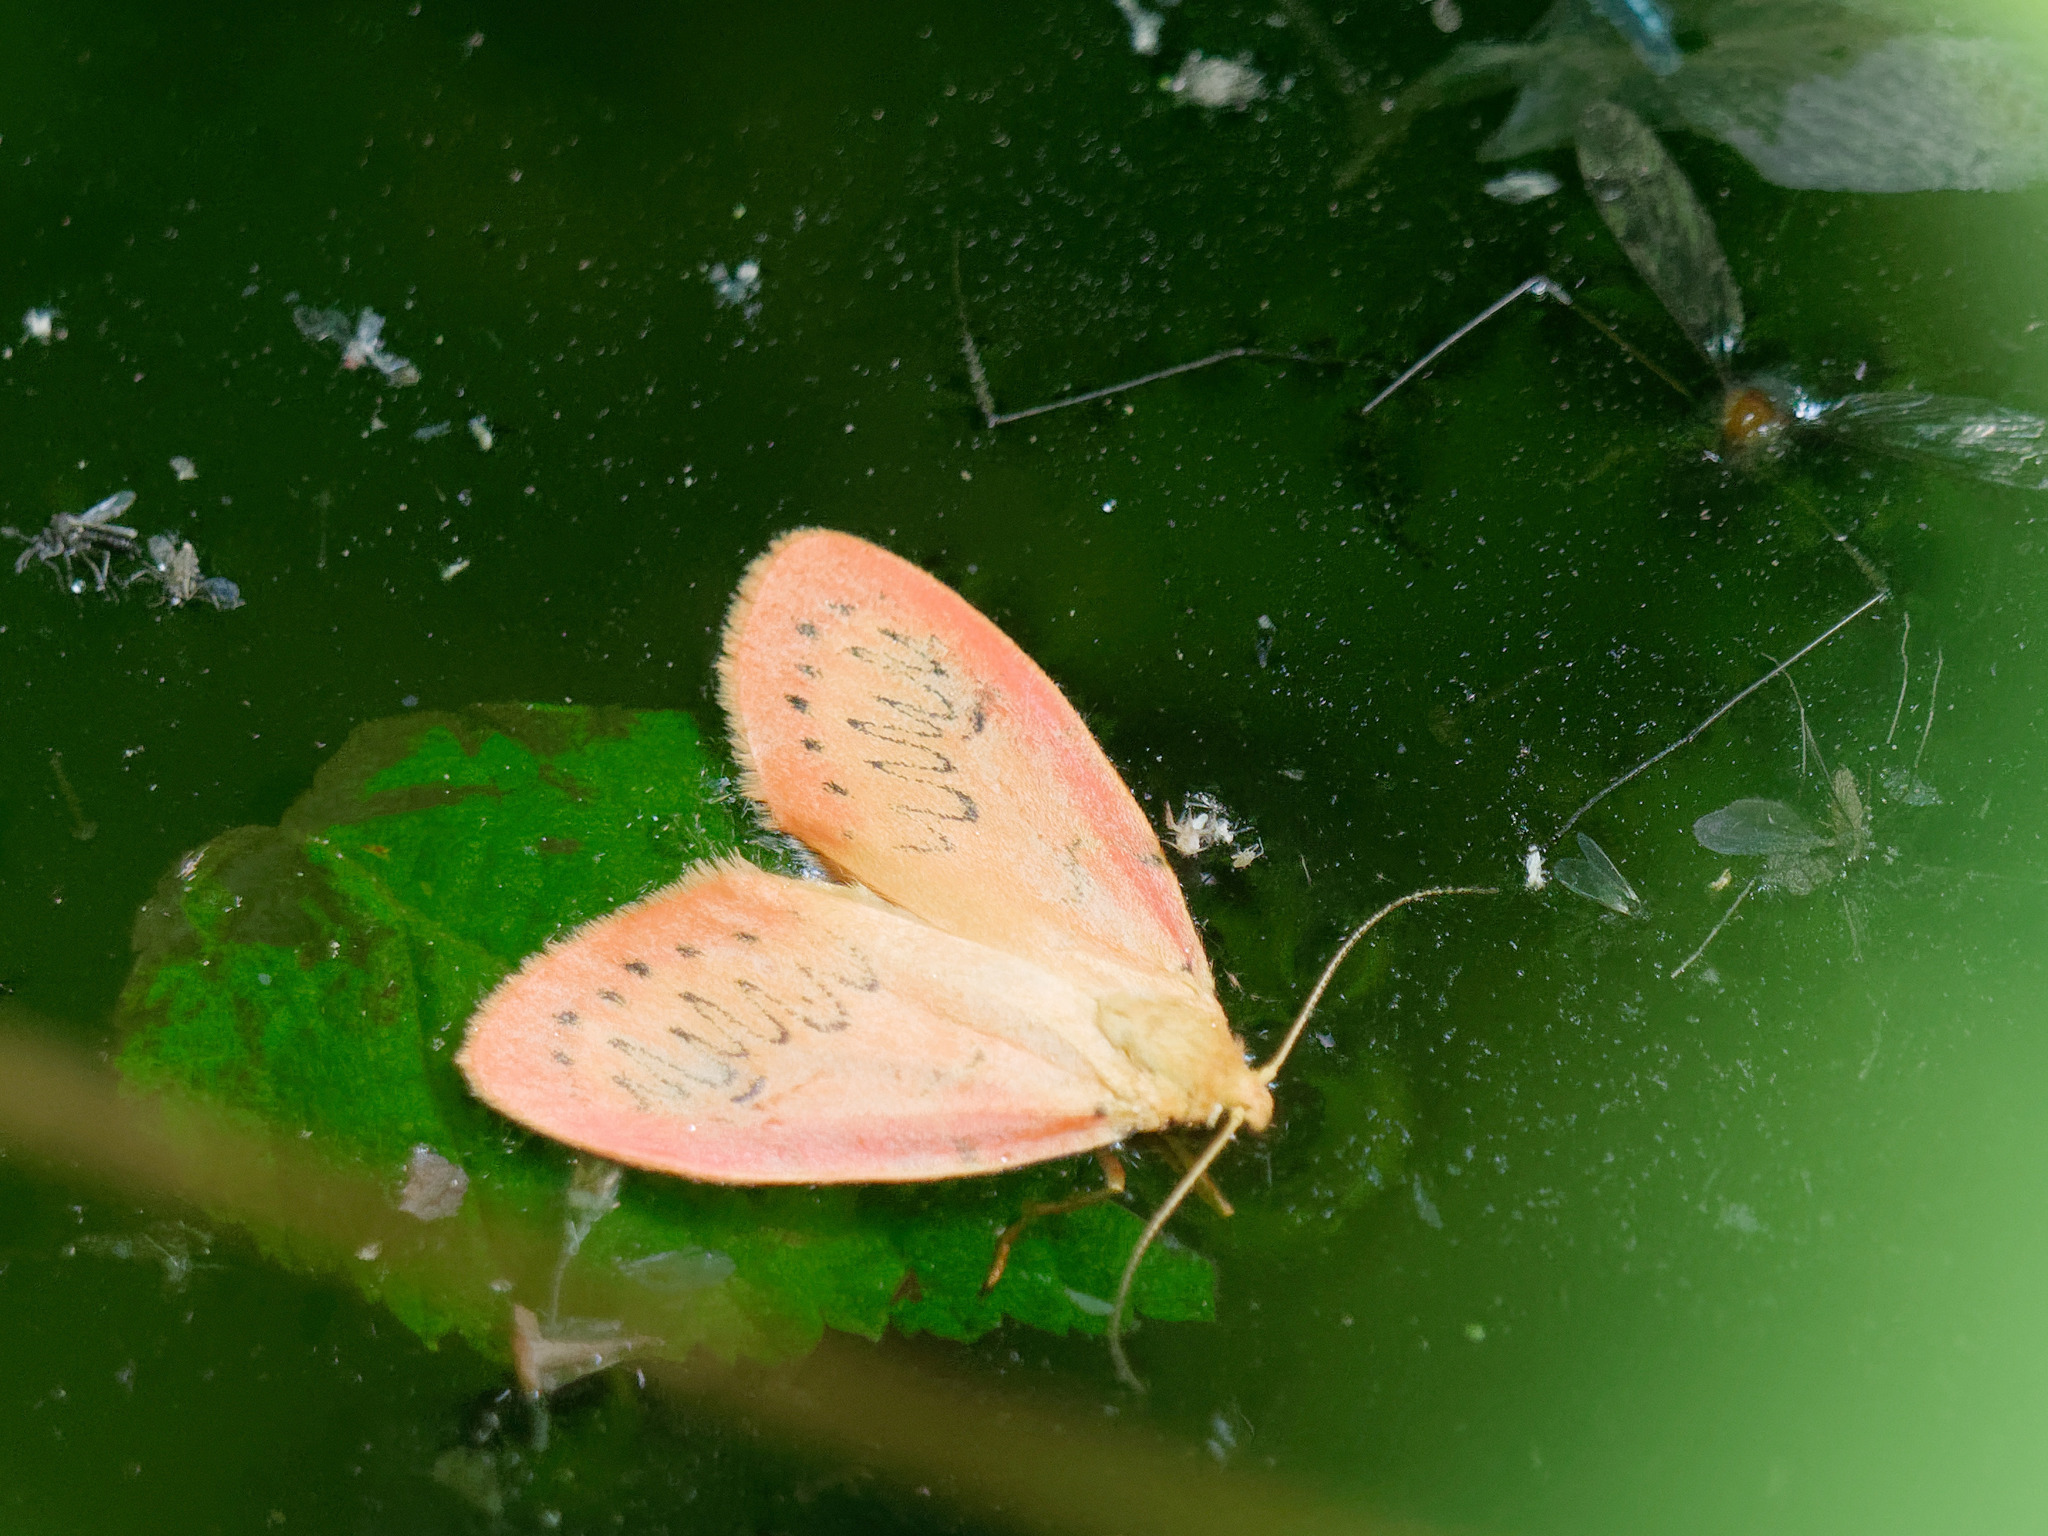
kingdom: Animalia
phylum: Arthropoda
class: Insecta
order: Lepidoptera
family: Erebidae
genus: Miltochrista
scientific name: Miltochrista miniata
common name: Rosy footman
